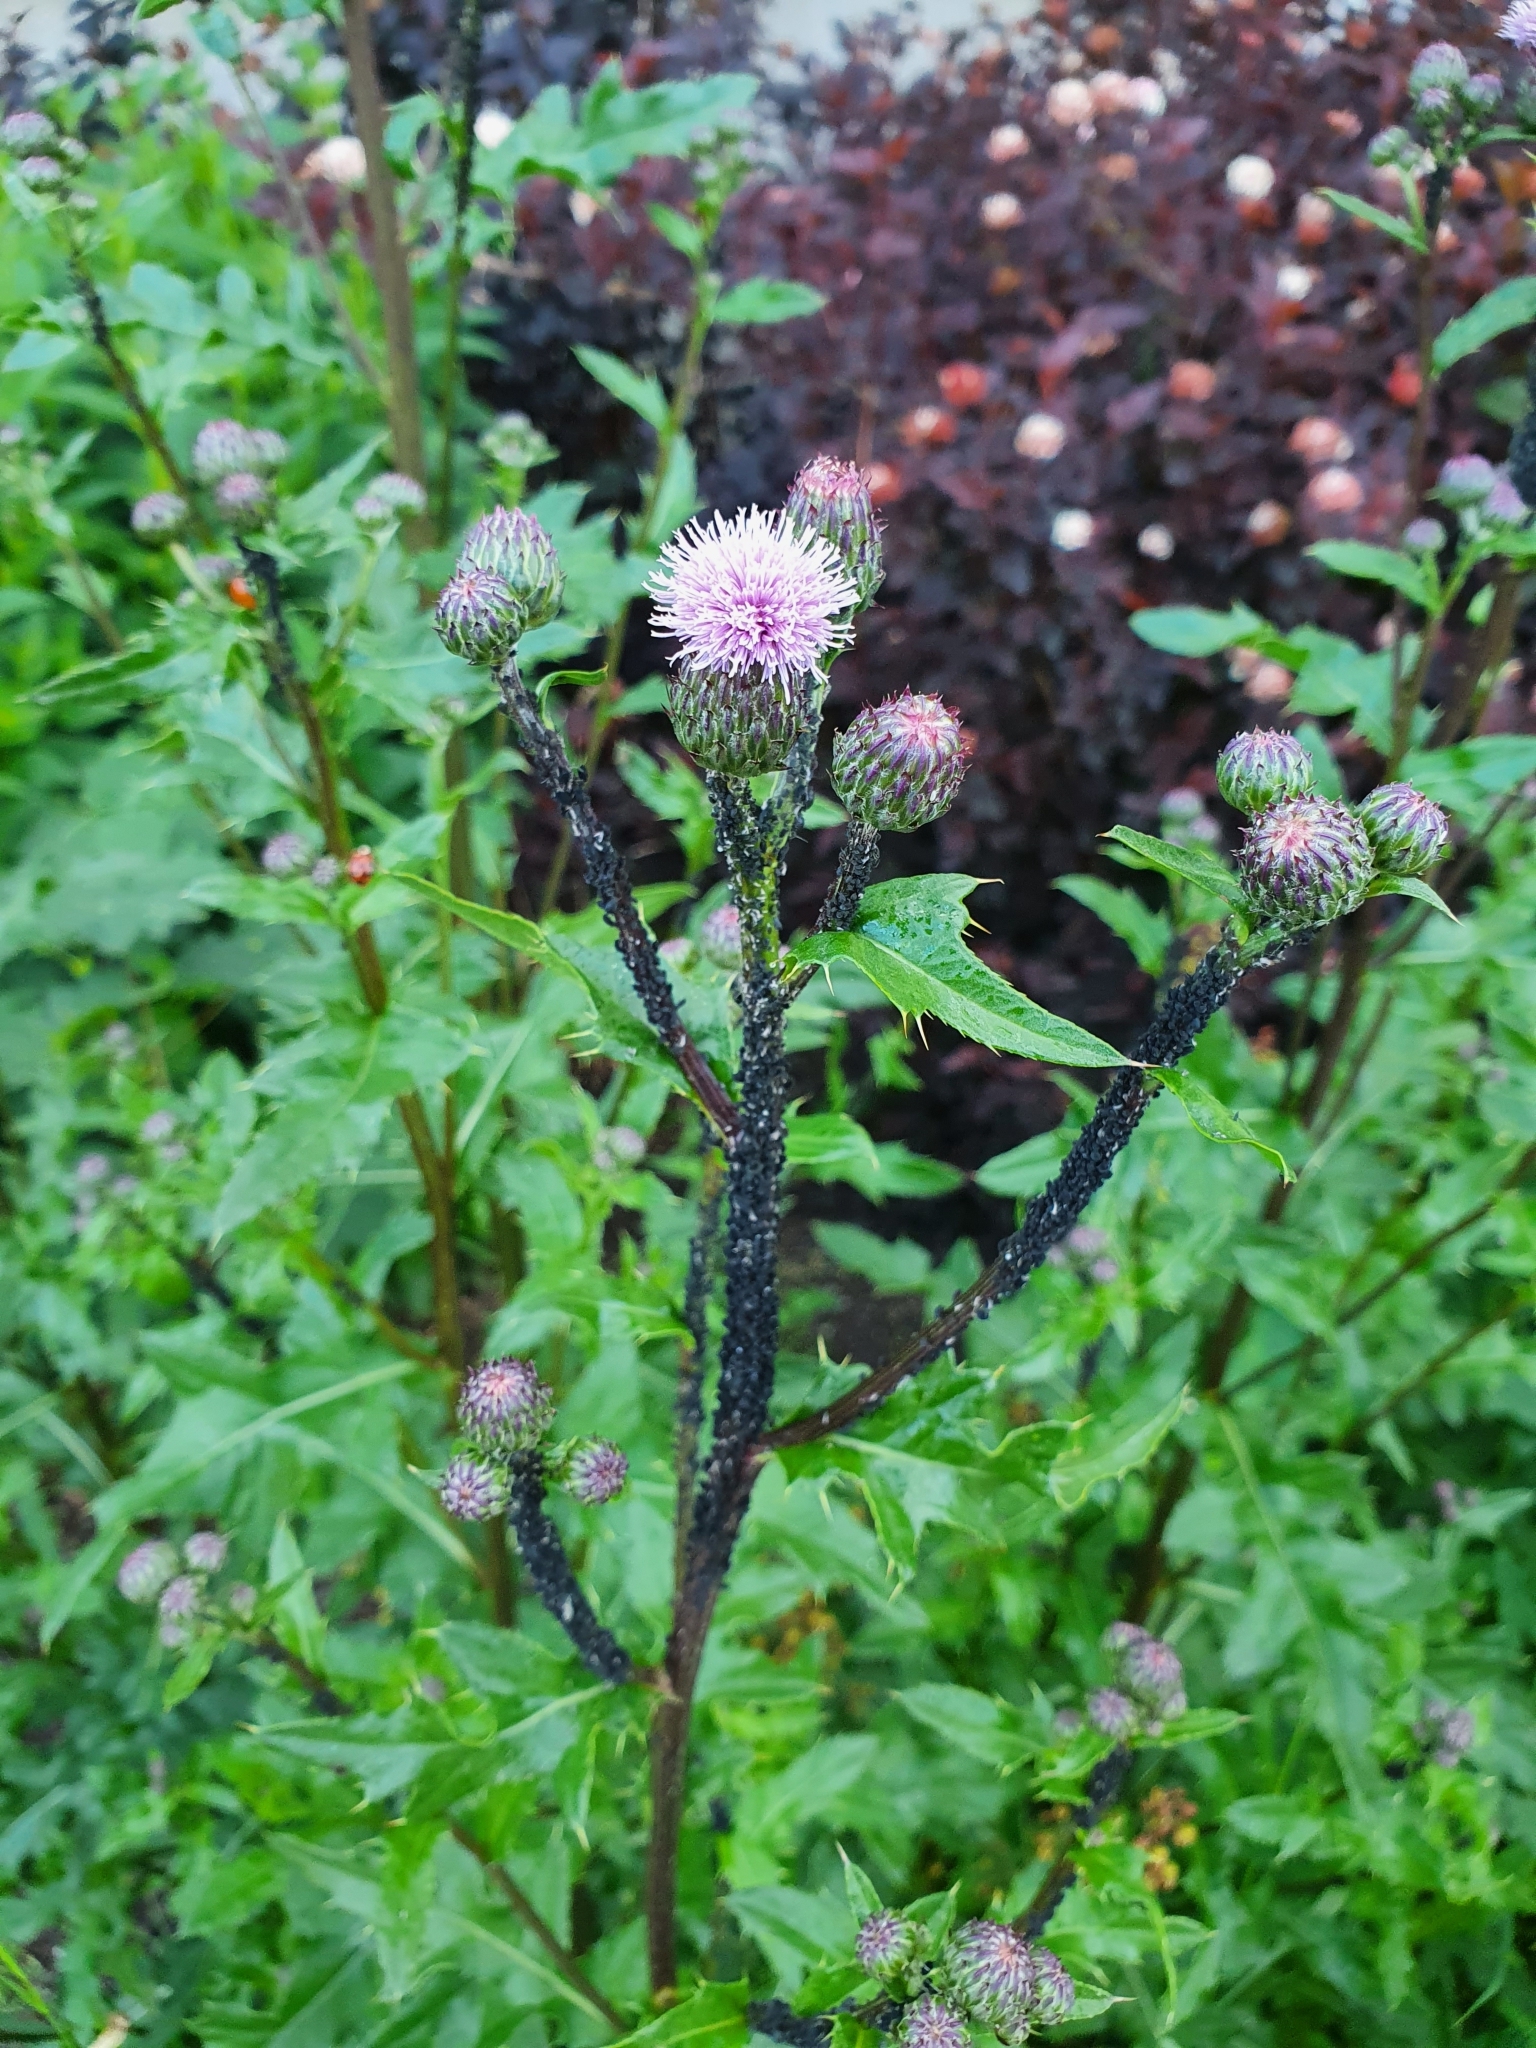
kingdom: Plantae
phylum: Tracheophyta
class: Magnoliopsida
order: Asterales
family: Asteraceae
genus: Cirsium
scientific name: Cirsium arvense
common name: Creeping thistle
